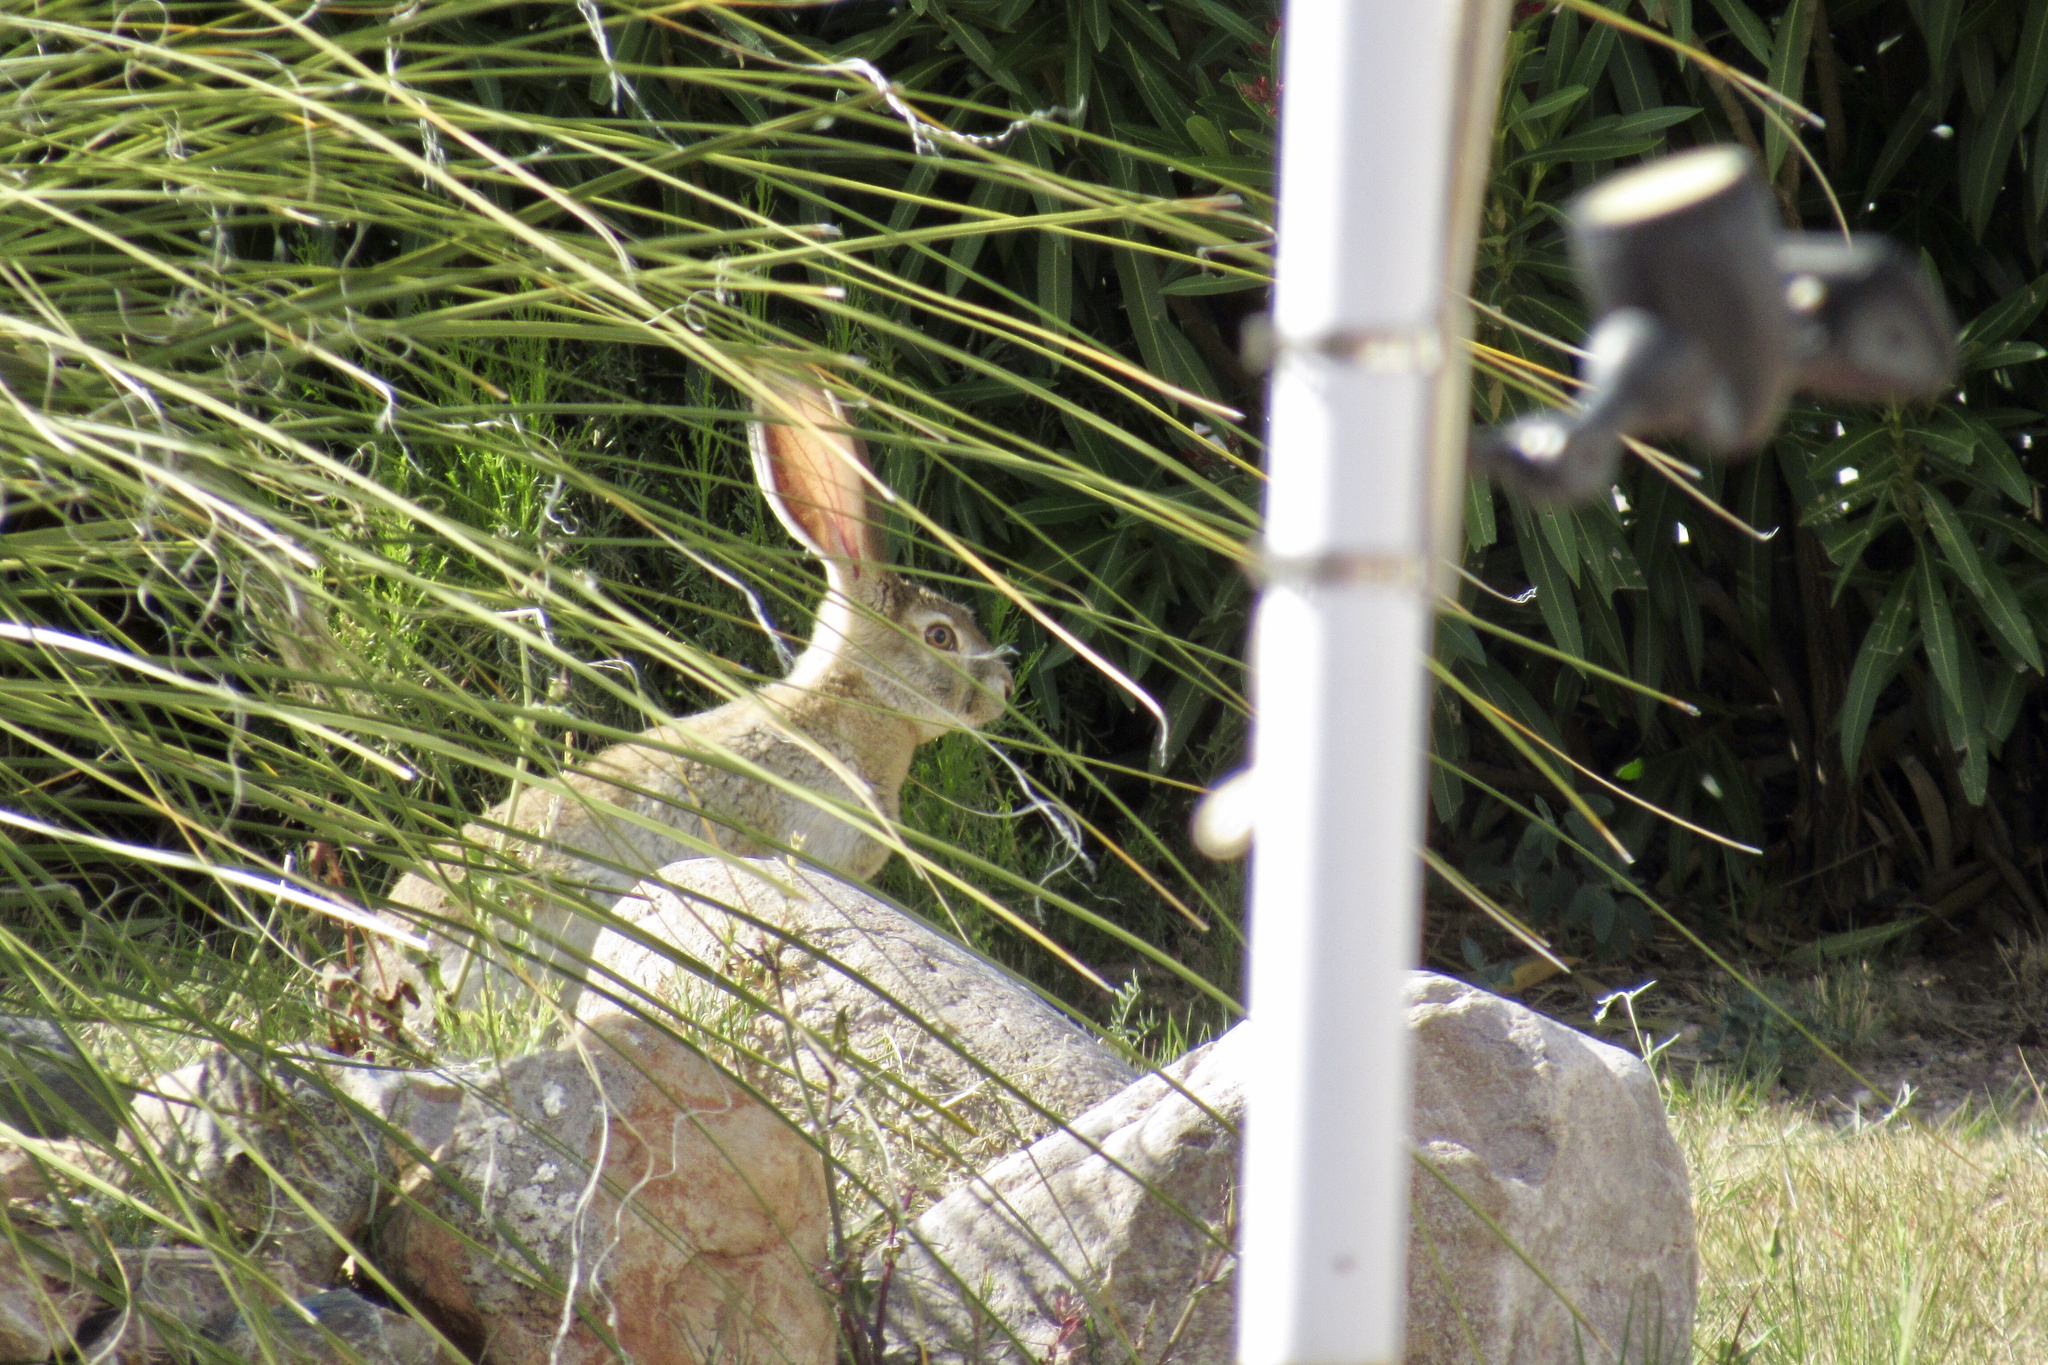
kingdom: Animalia
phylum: Chordata
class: Mammalia
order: Lagomorpha
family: Leporidae
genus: Lepus
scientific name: Lepus alleni
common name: Antelope jackrabbit
